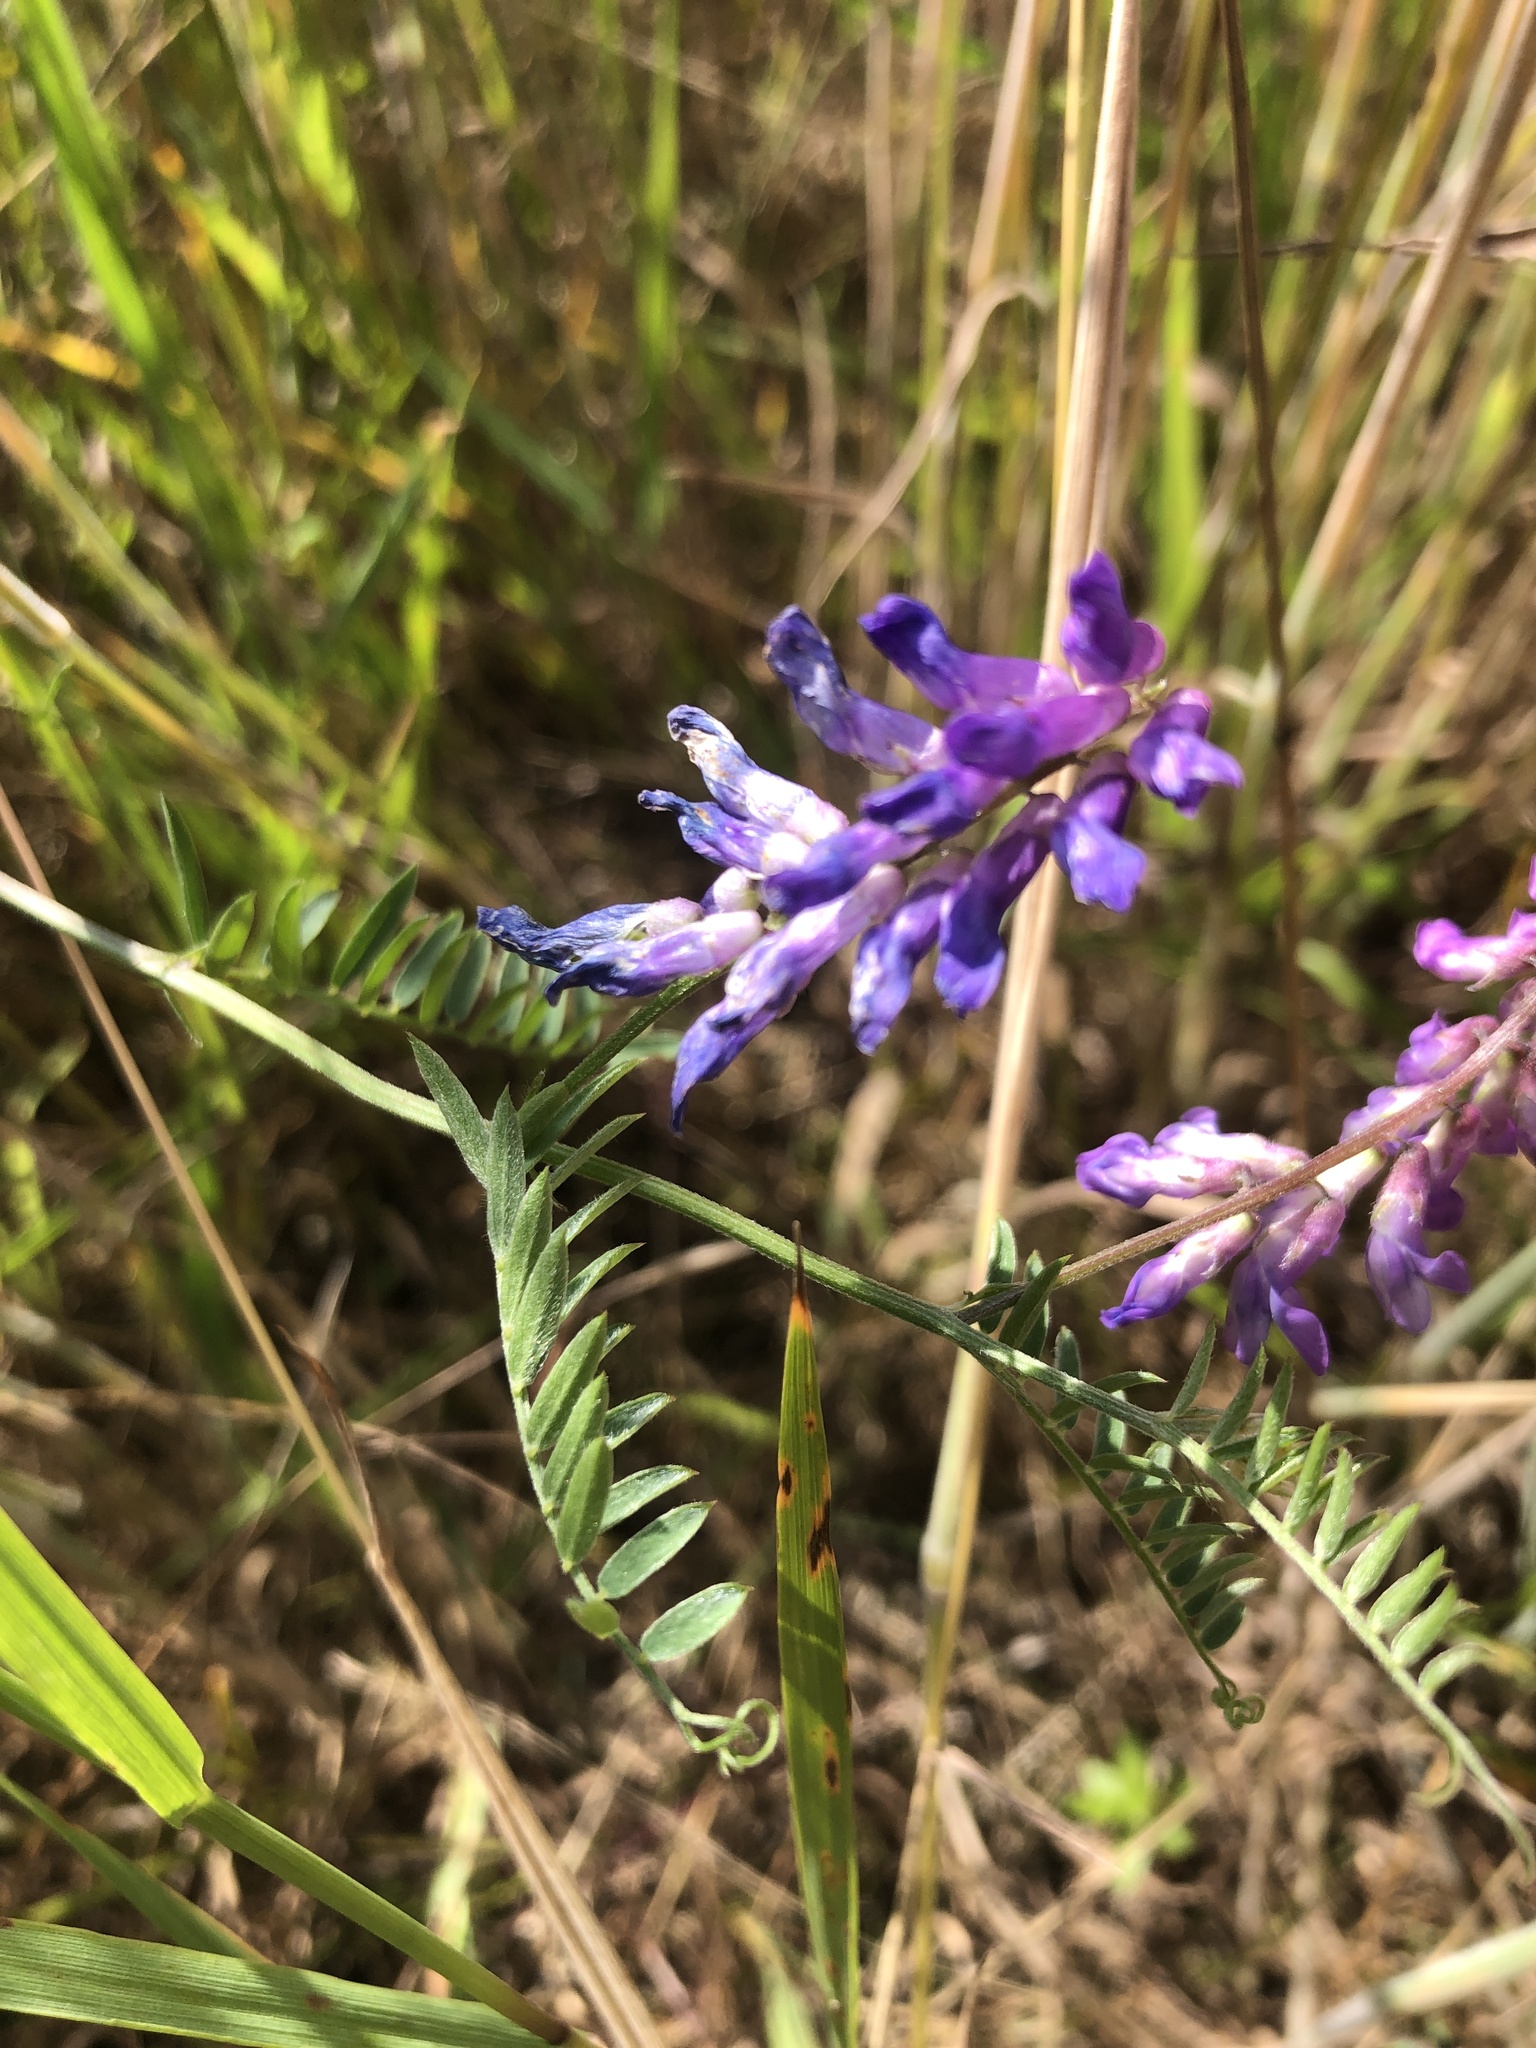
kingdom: Plantae
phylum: Tracheophyta
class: Magnoliopsida
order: Fabales
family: Fabaceae
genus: Vicia
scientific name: Vicia cracca
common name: Bird vetch
